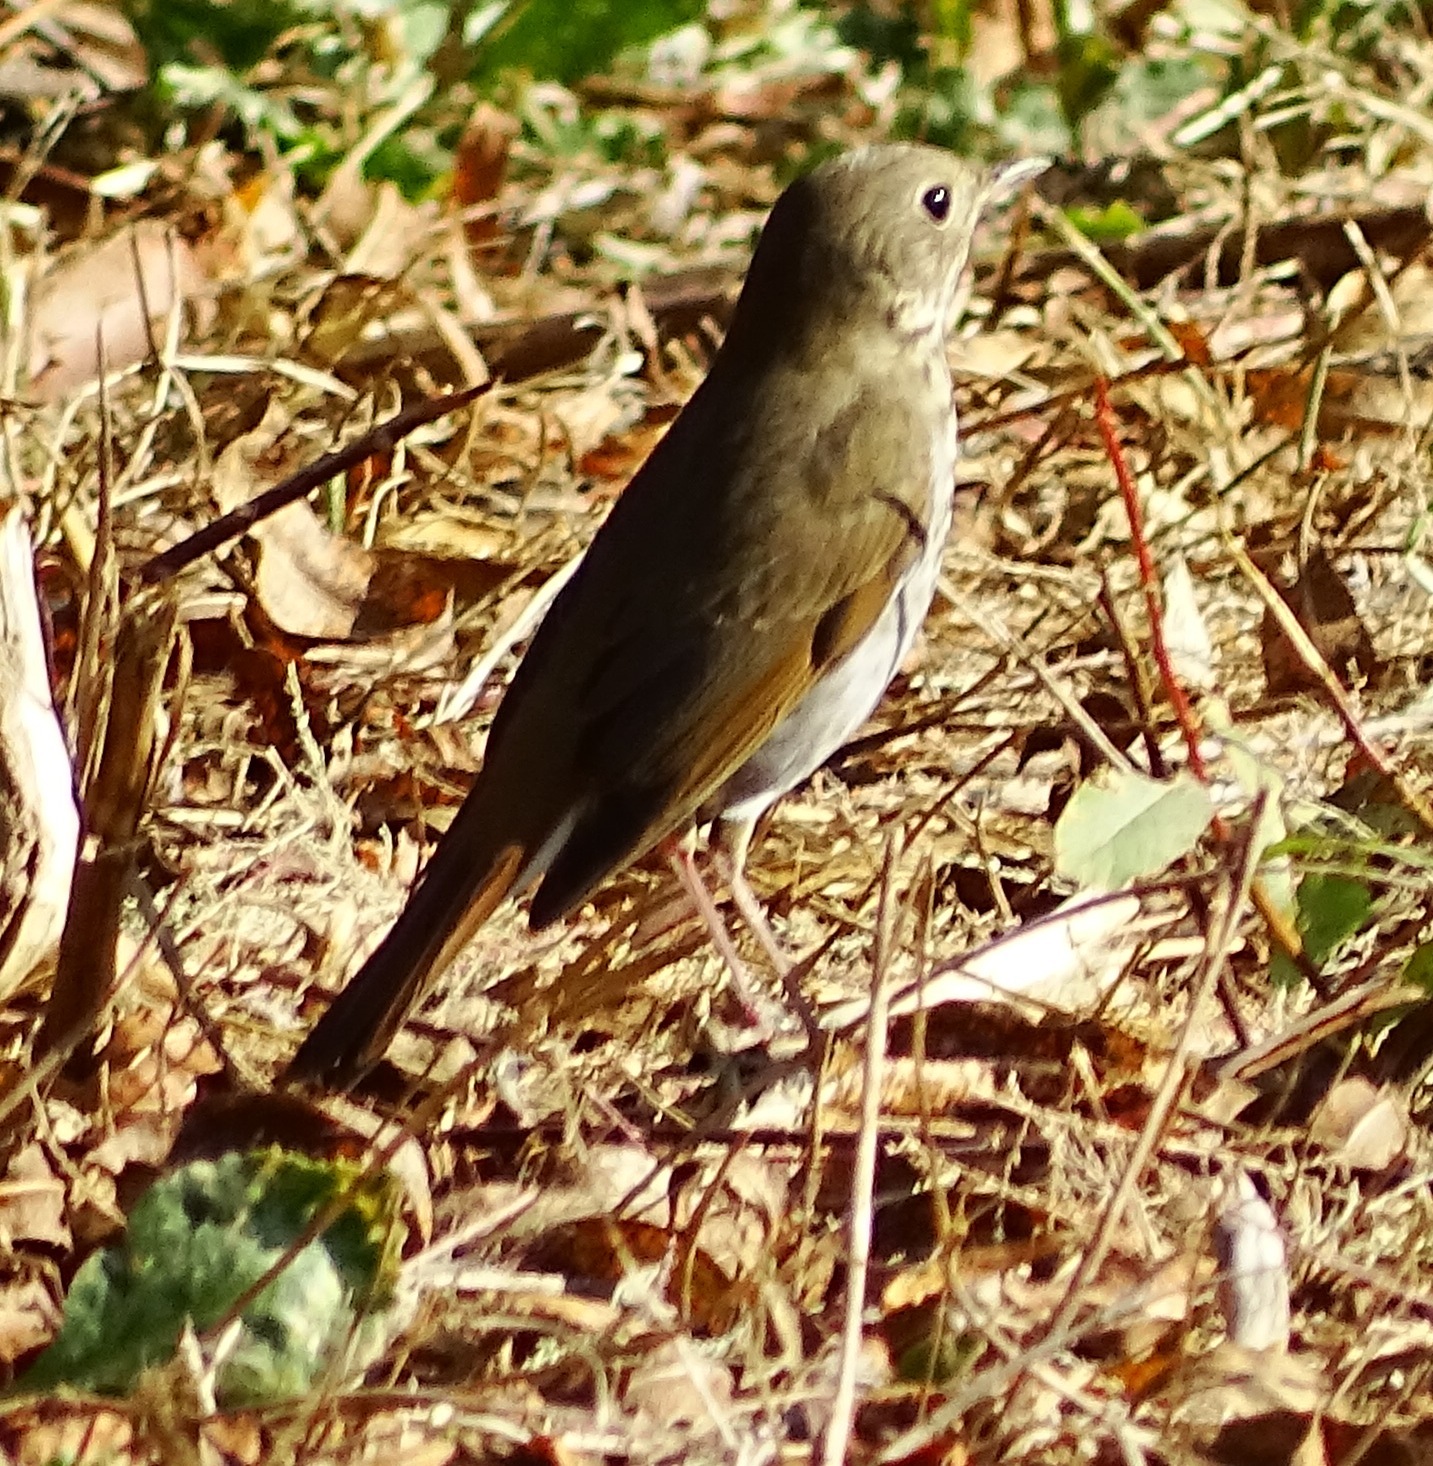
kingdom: Animalia
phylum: Chordata
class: Aves
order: Passeriformes
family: Turdidae
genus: Catharus
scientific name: Catharus guttatus
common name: Hermit thrush
